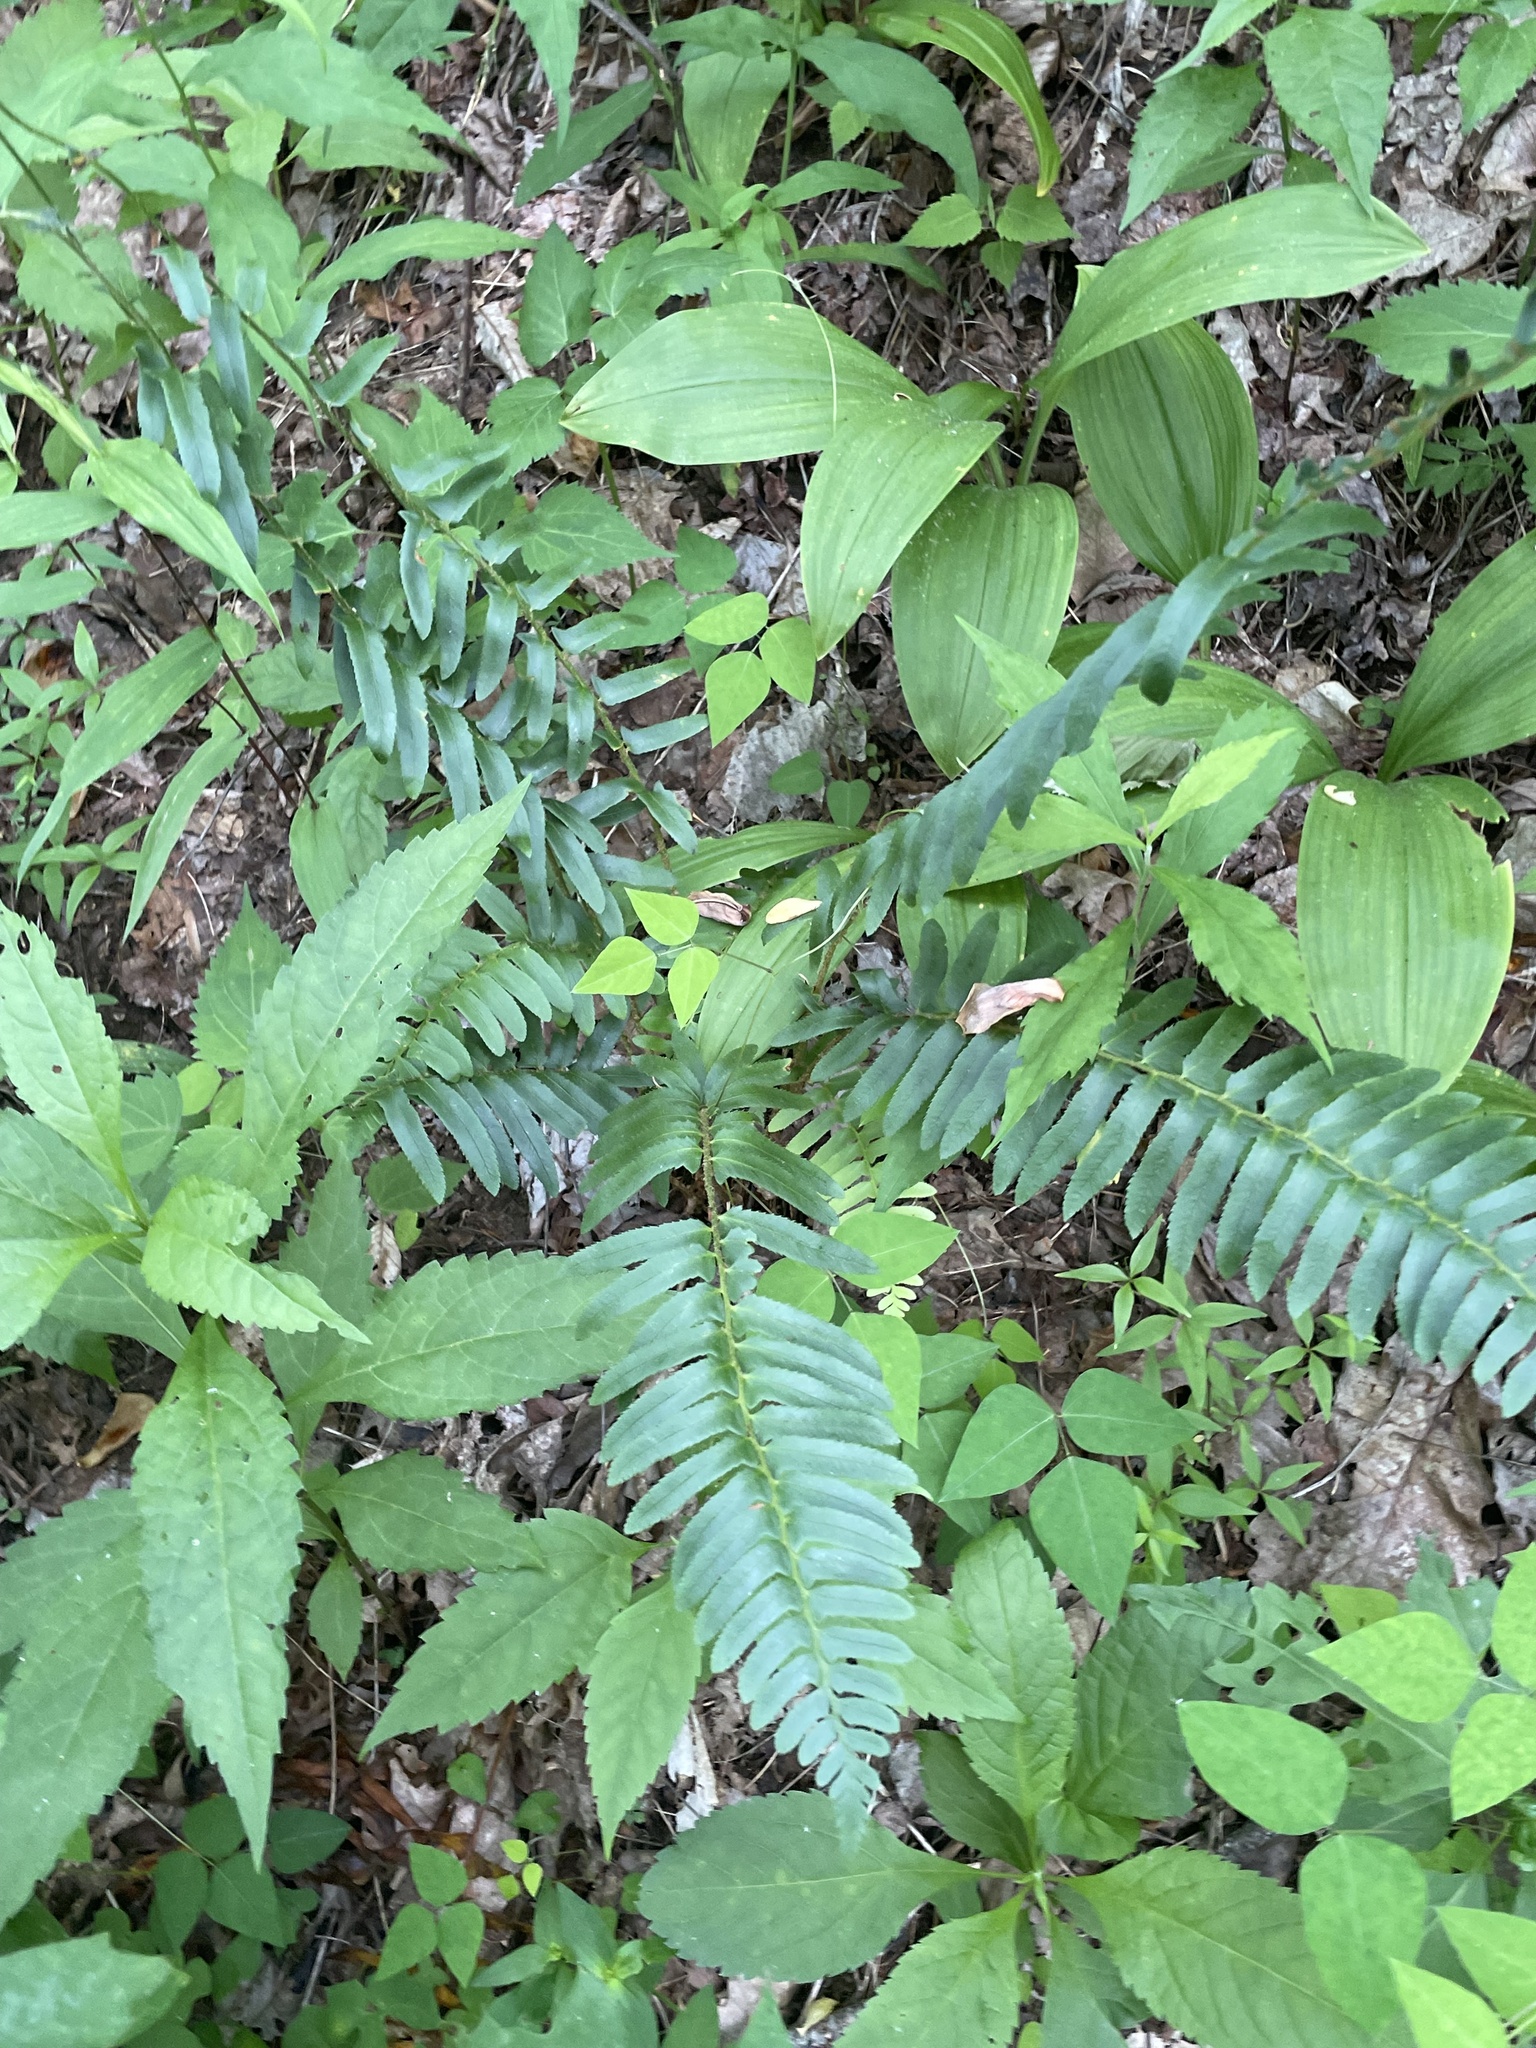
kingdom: Plantae
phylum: Tracheophyta
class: Polypodiopsida
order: Polypodiales
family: Dryopteridaceae
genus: Polystichum
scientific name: Polystichum acrostichoides
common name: Christmas fern
